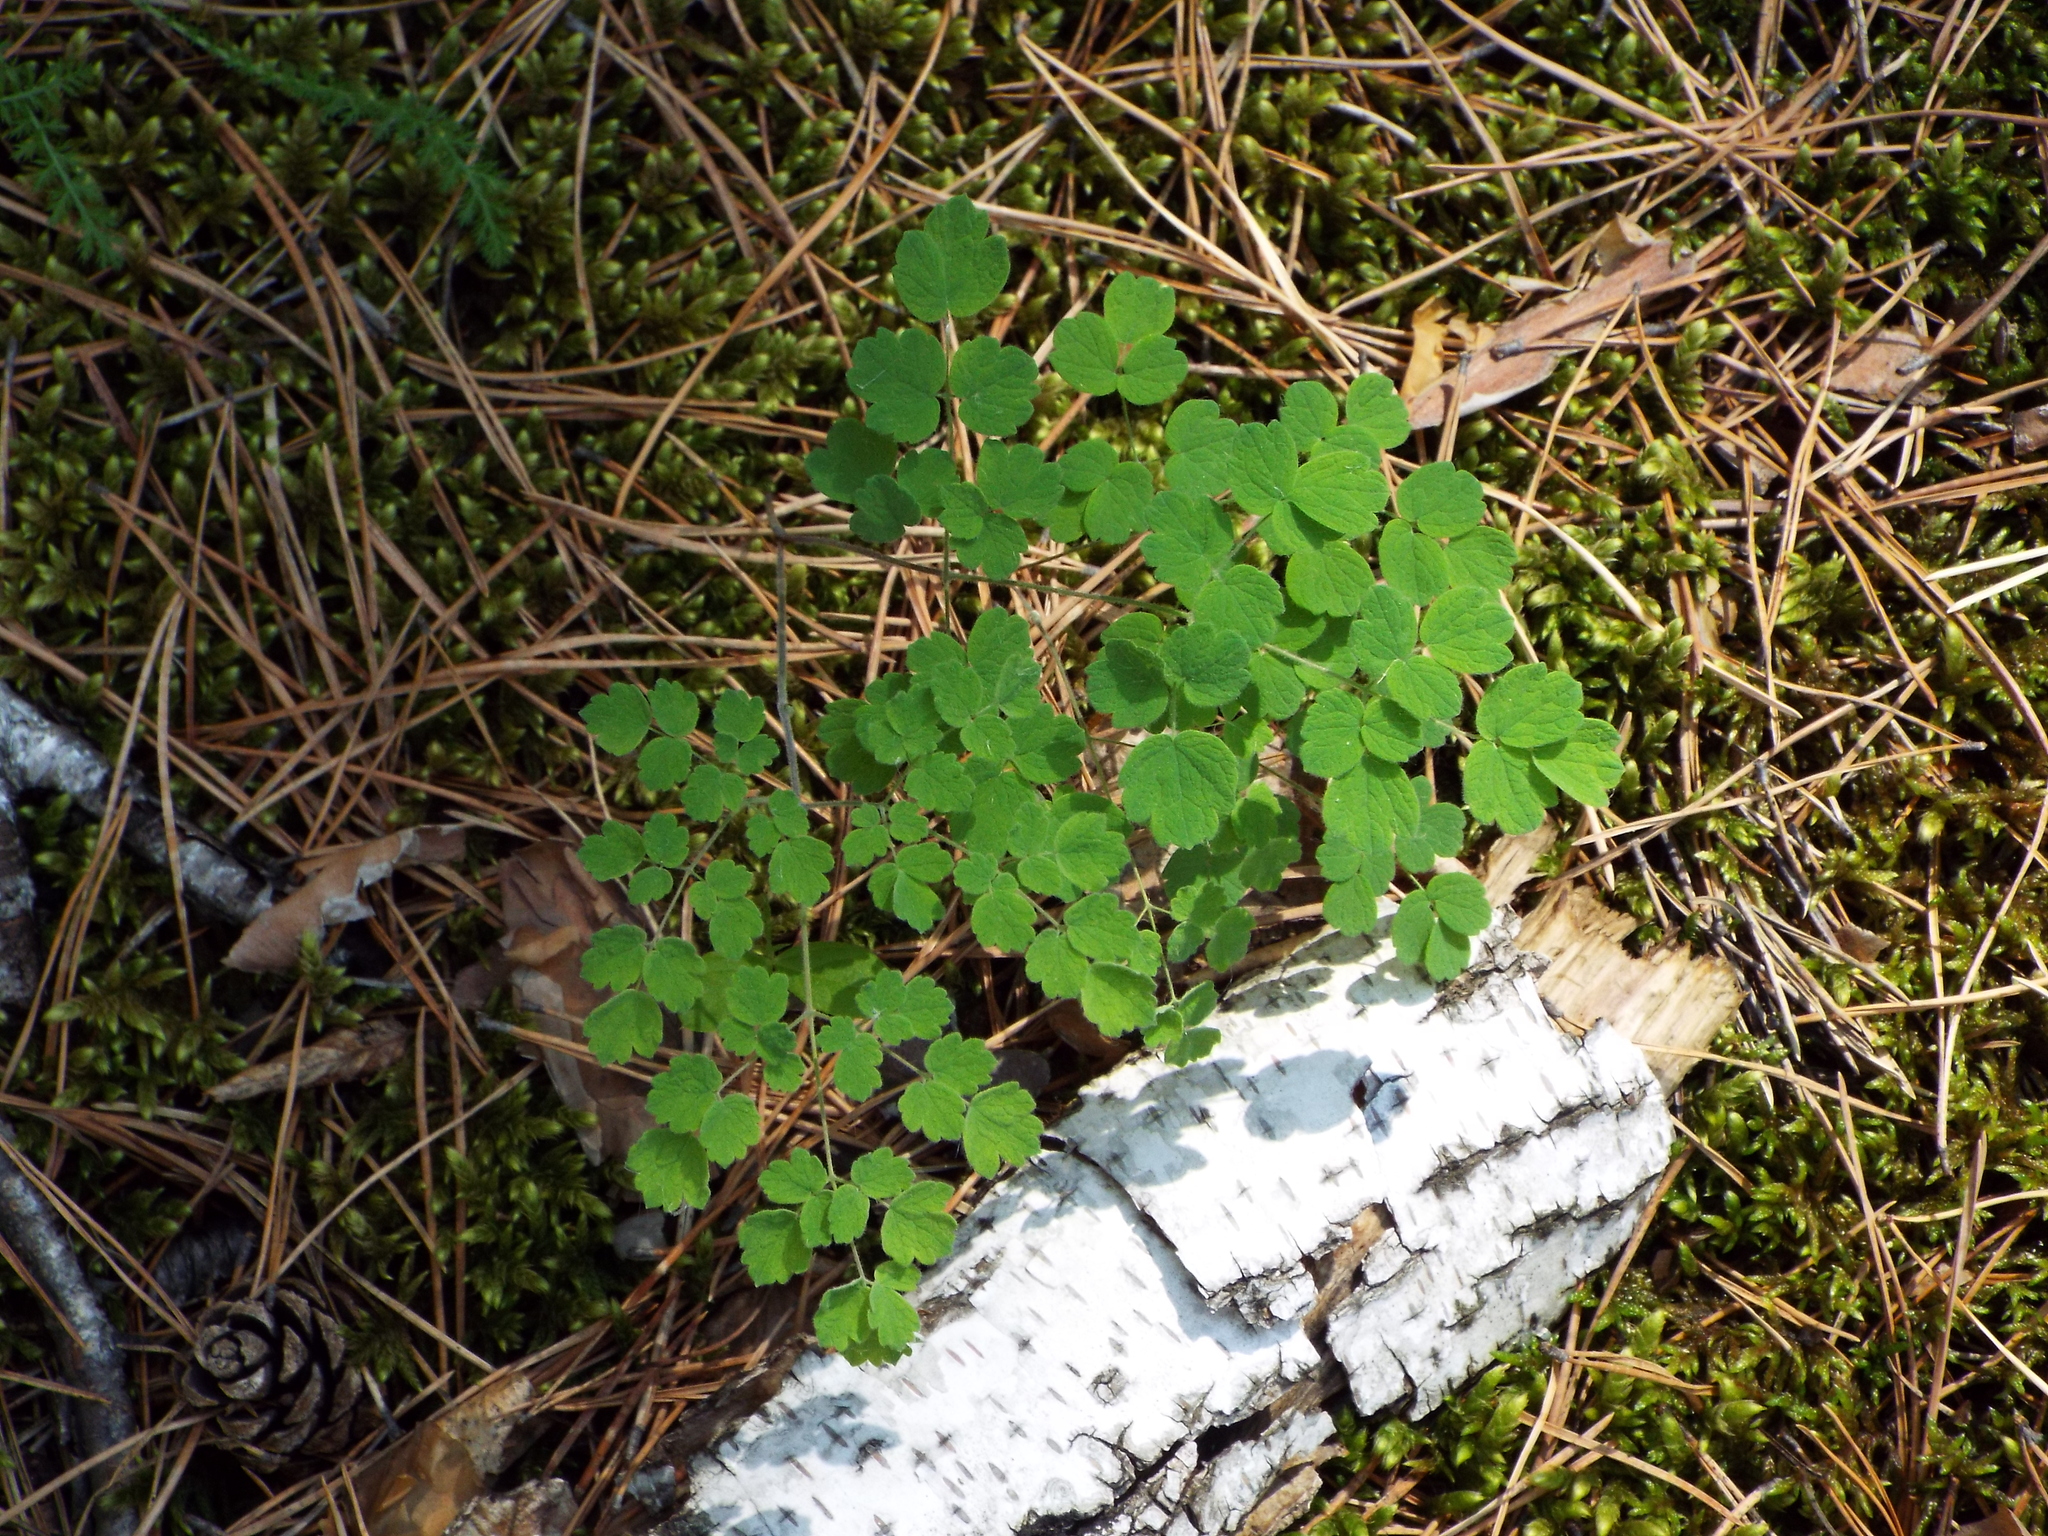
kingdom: Plantae
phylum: Tracheophyta
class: Magnoliopsida
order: Ranunculales
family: Ranunculaceae
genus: Thalictrum
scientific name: Thalictrum minus
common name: Lesser meadow-rue
